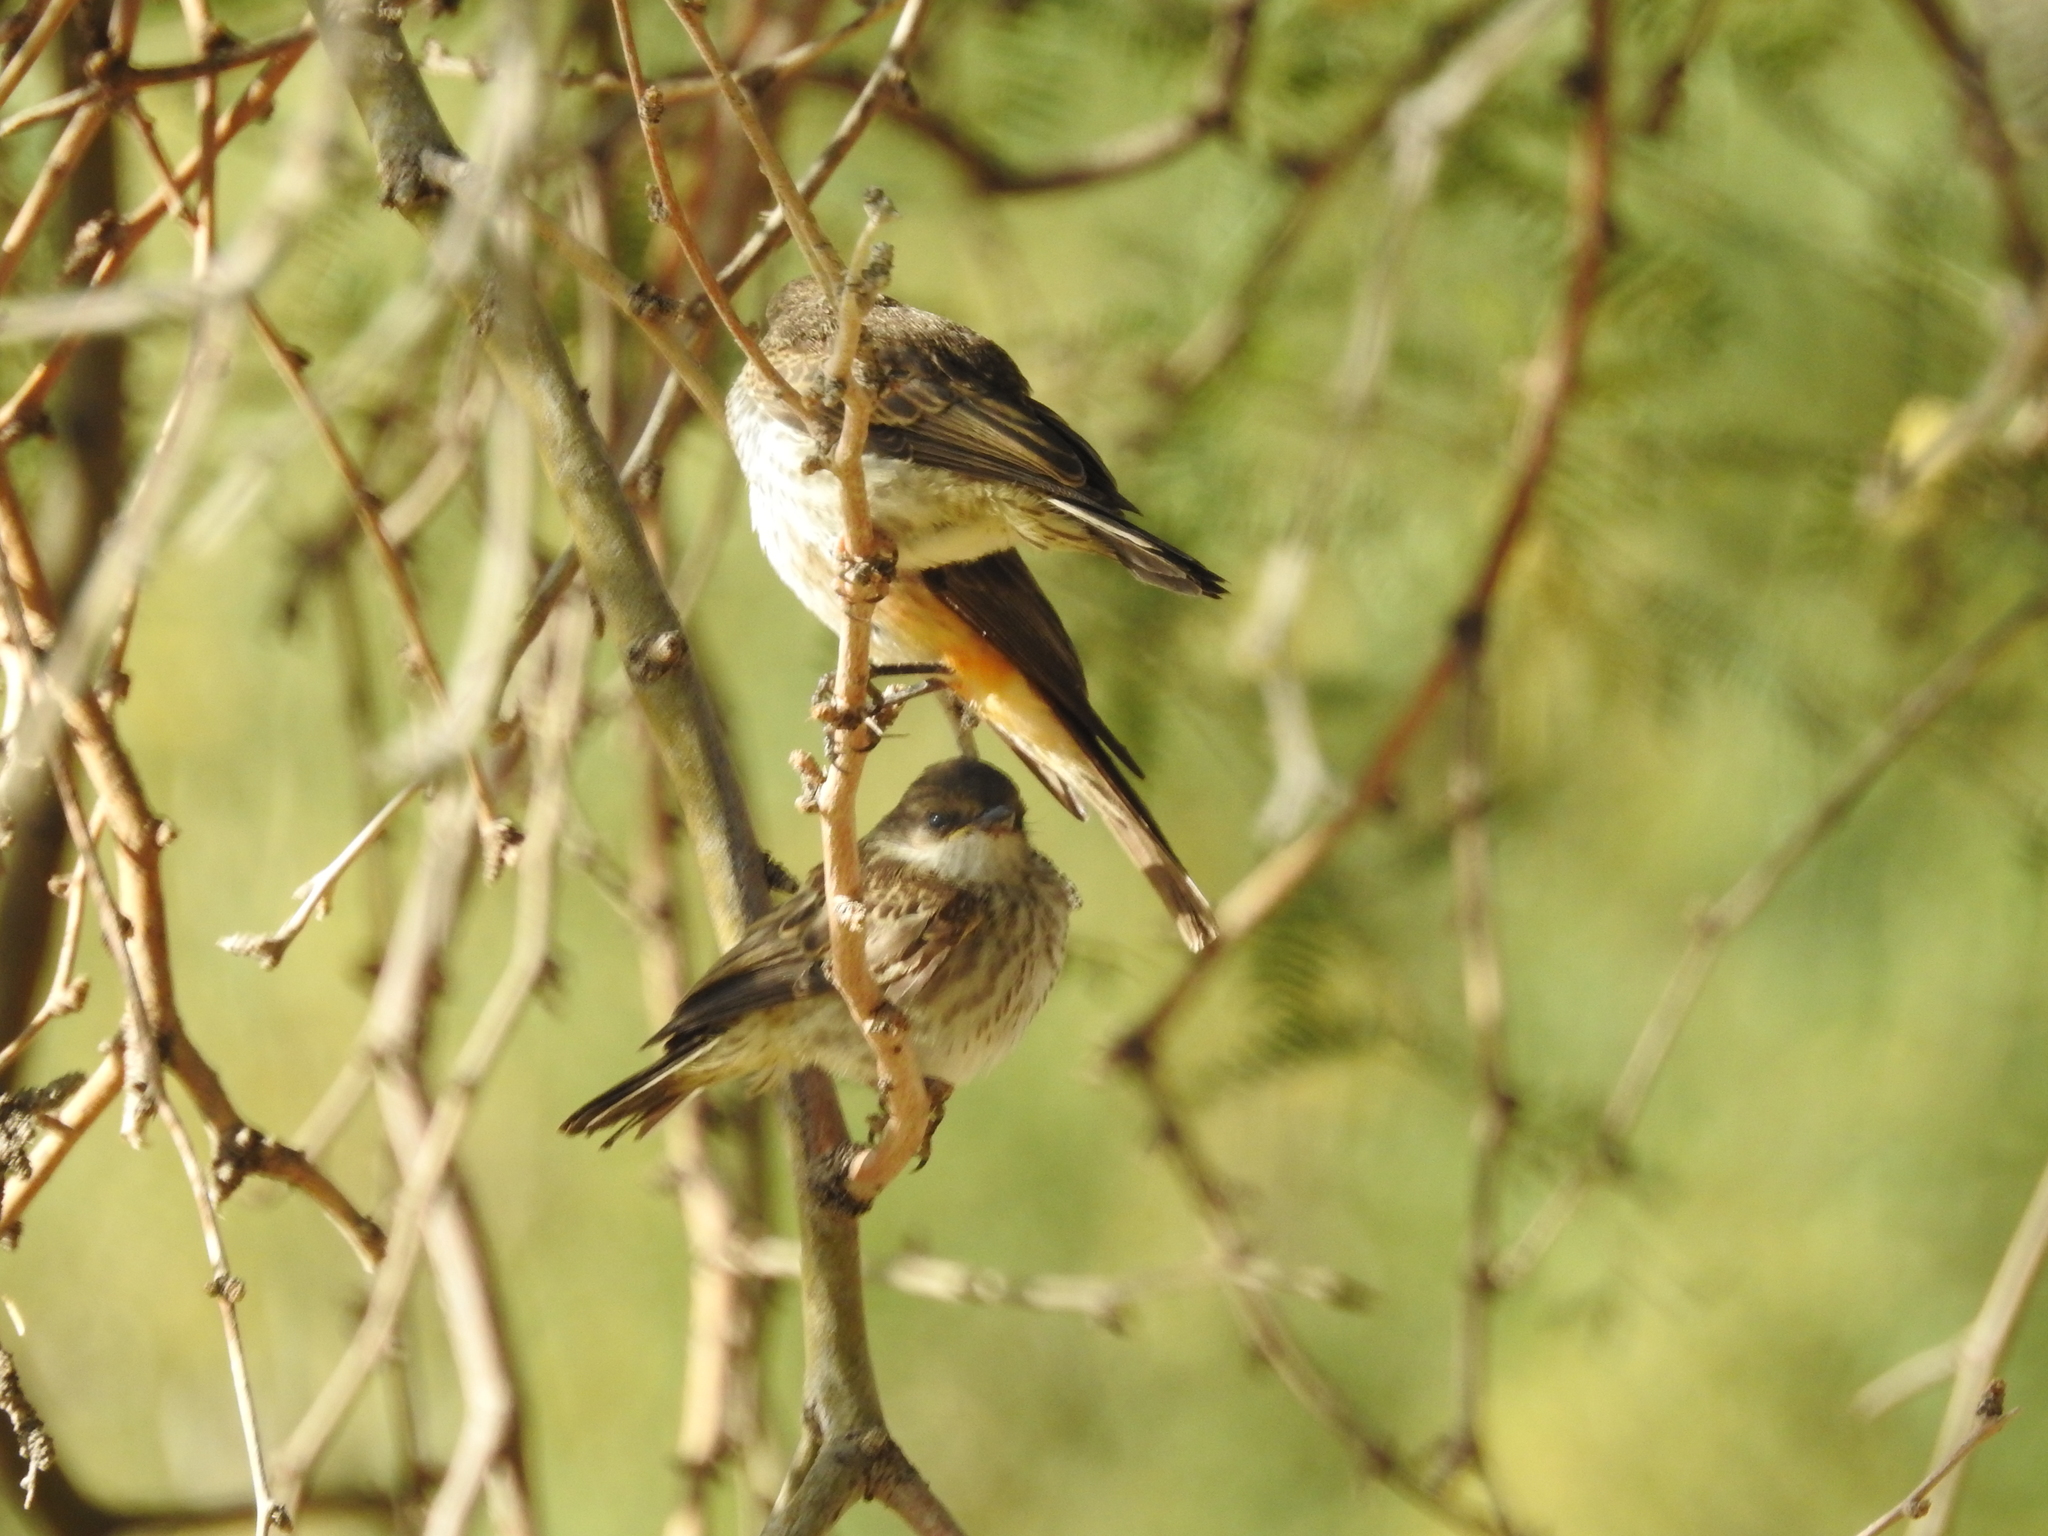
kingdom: Animalia
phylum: Chordata
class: Aves
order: Passeriformes
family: Tyrannidae
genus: Pyrocephalus
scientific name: Pyrocephalus rubinus
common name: Vermilion flycatcher
